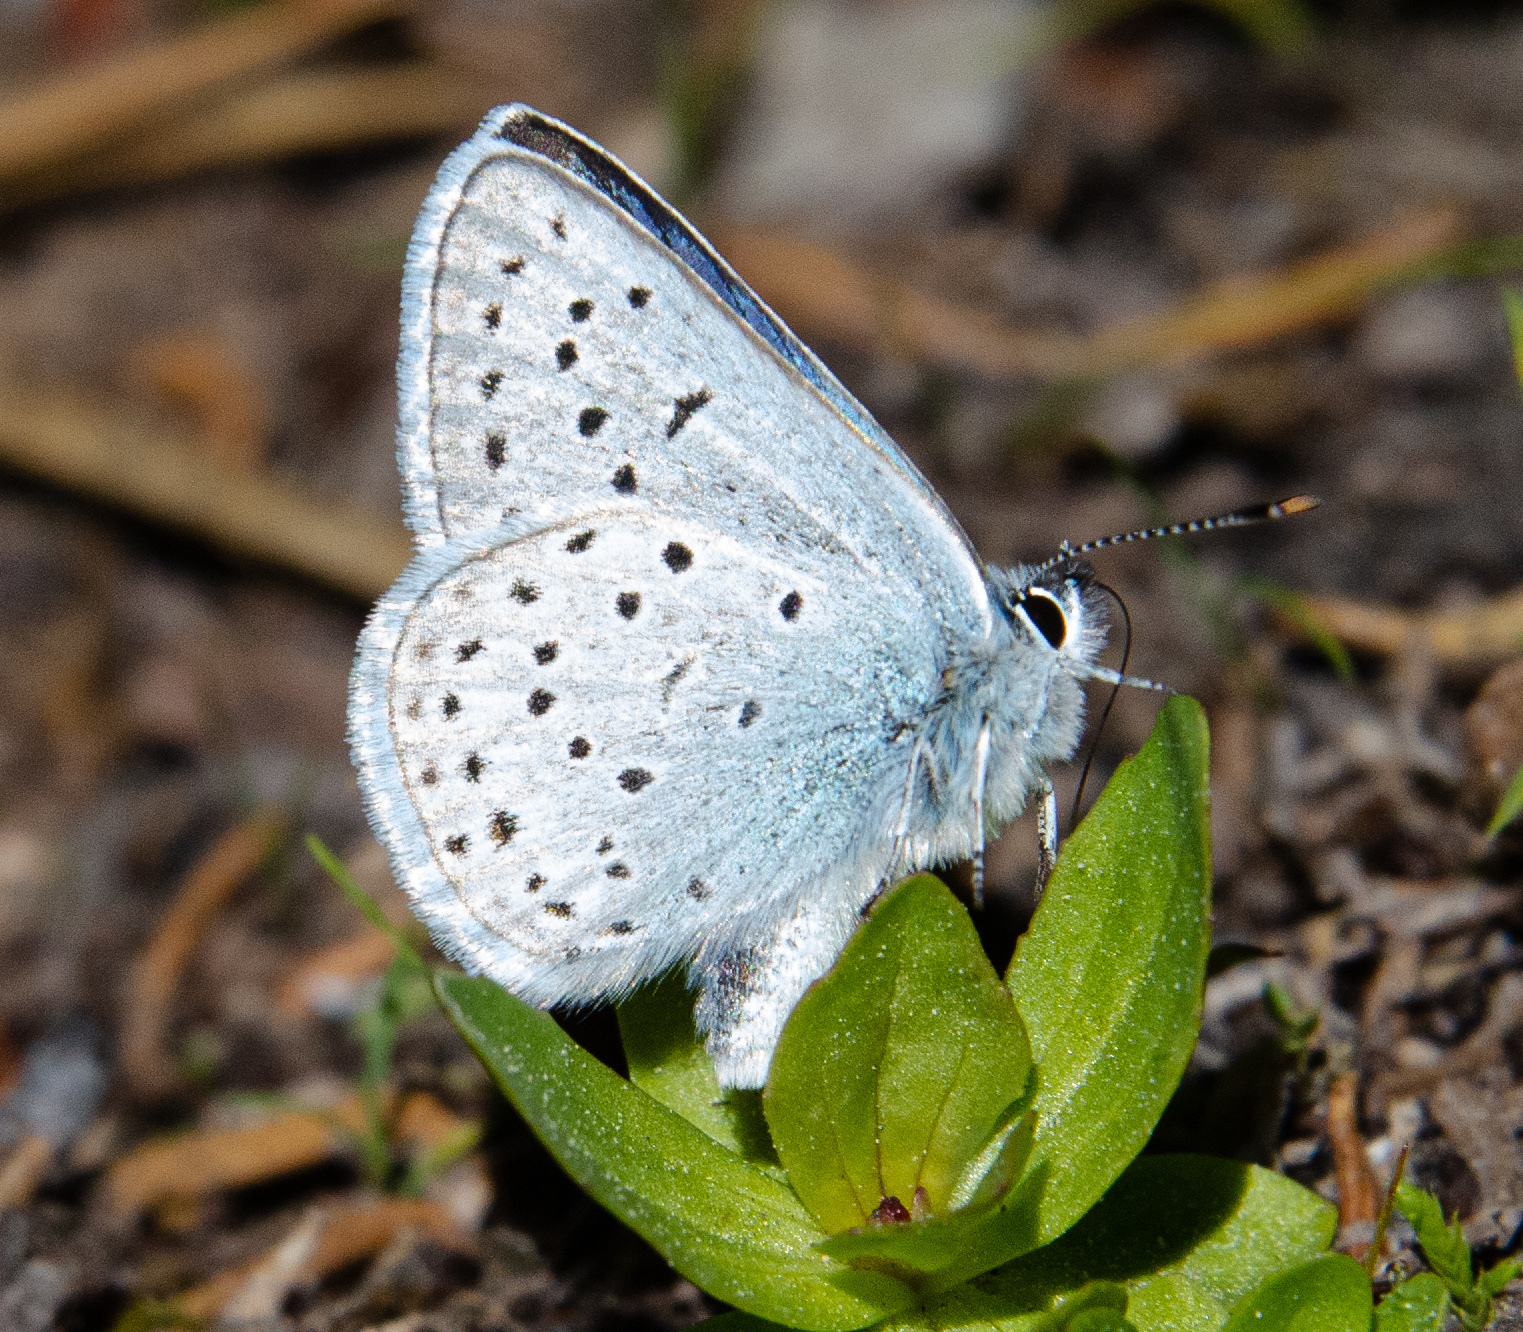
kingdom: Animalia
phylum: Arthropoda
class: Insecta
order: Lepidoptera
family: Lycaenidae
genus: Icaricia
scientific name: Icaricia saepiolus
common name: Greenish blue
